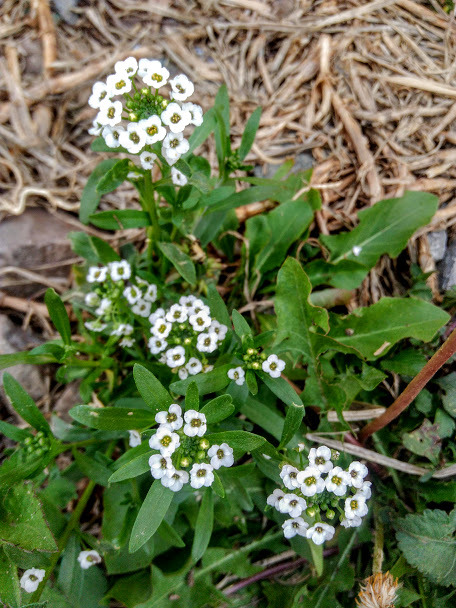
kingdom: Plantae
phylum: Tracheophyta
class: Magnoliopsida
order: Brassicales
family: Brassicaceae
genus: Lobularia
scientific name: Lobularia maritima
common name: Sweet alison
